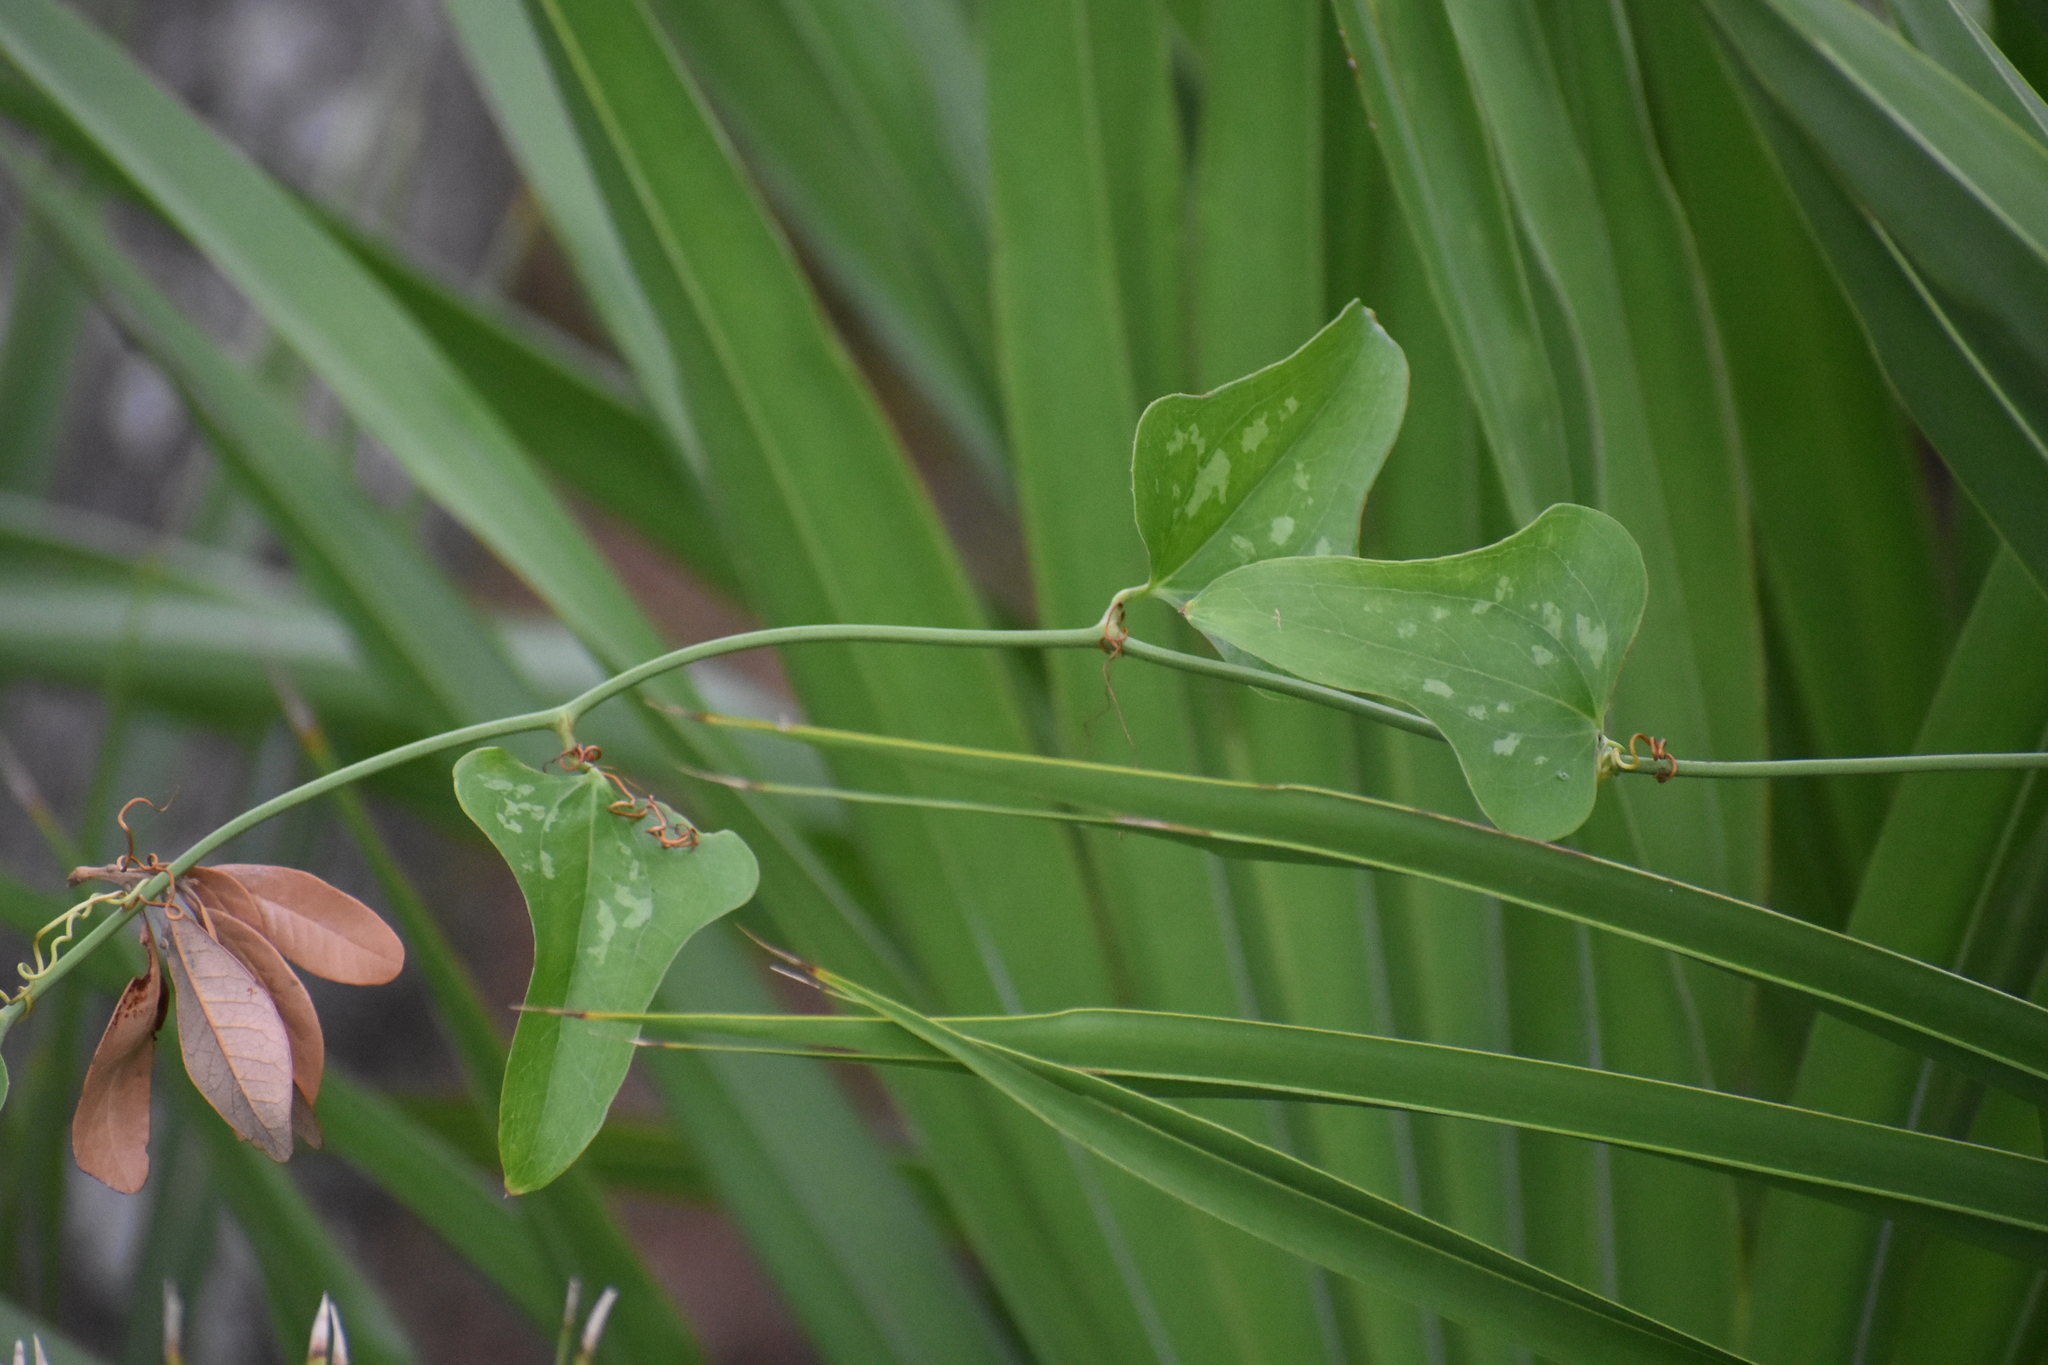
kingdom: Plantae
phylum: Tracheophyta
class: Liliopsida
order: Liliales
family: Smilacaceae
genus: Smilax
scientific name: Smilax bona-nox
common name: Catbrier
